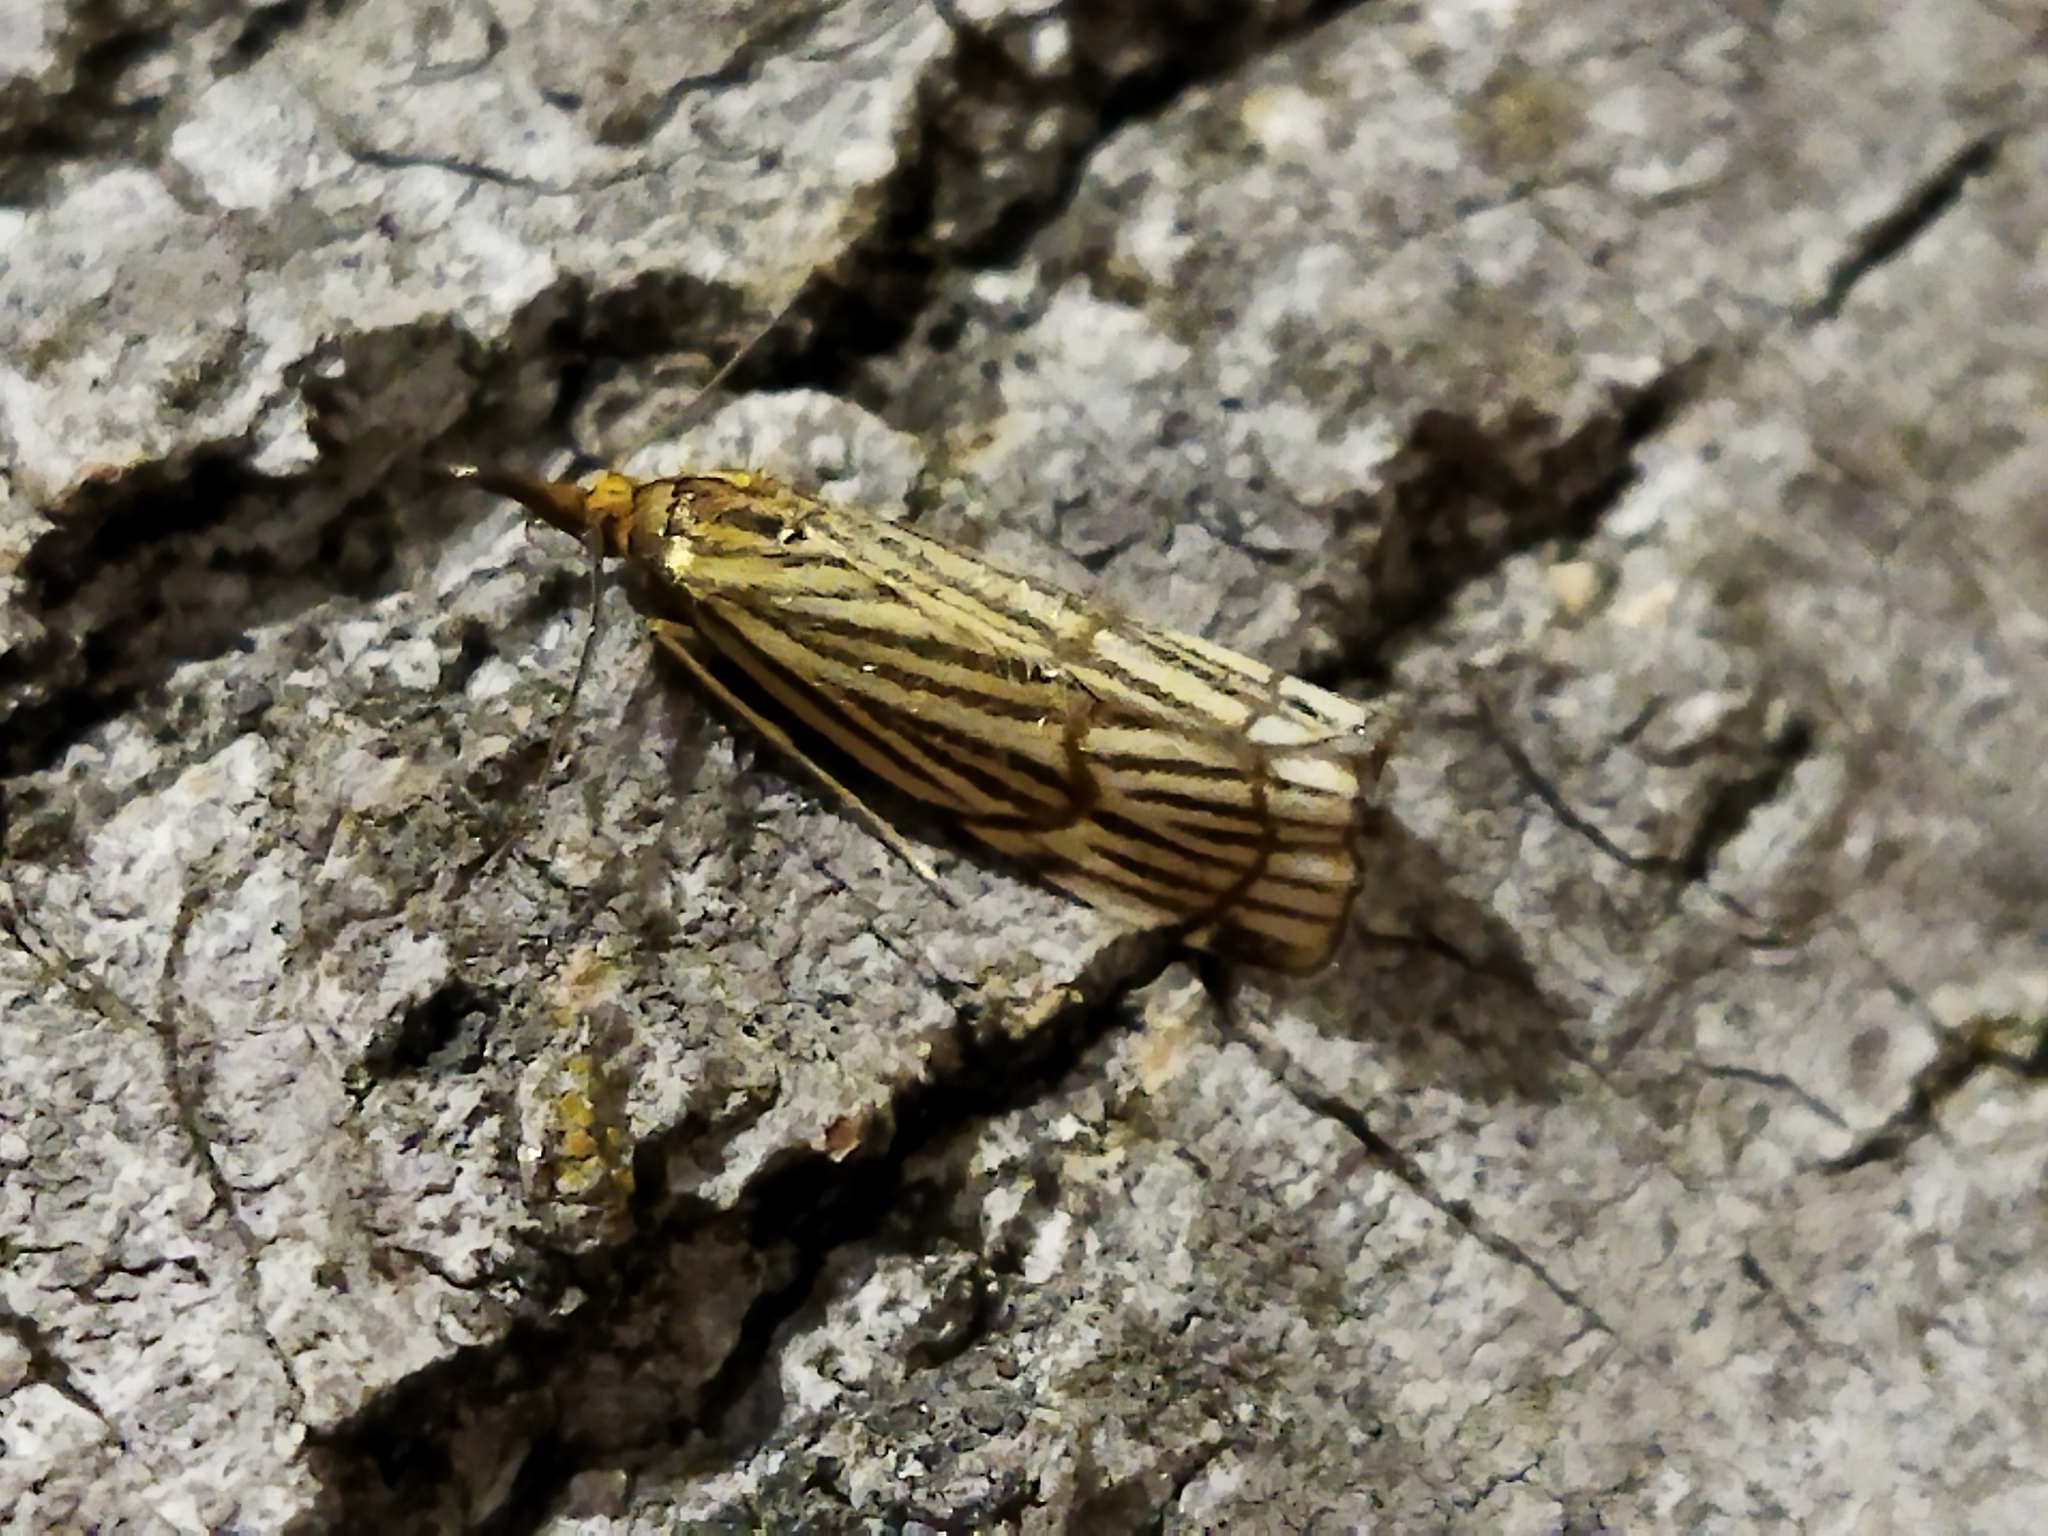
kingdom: Animalia
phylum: Arthropoda
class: Insecta
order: Lepidoptera
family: Crambidae
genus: Chrysocrambus
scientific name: Chrysocrambus Chrysocramboides craterellus
